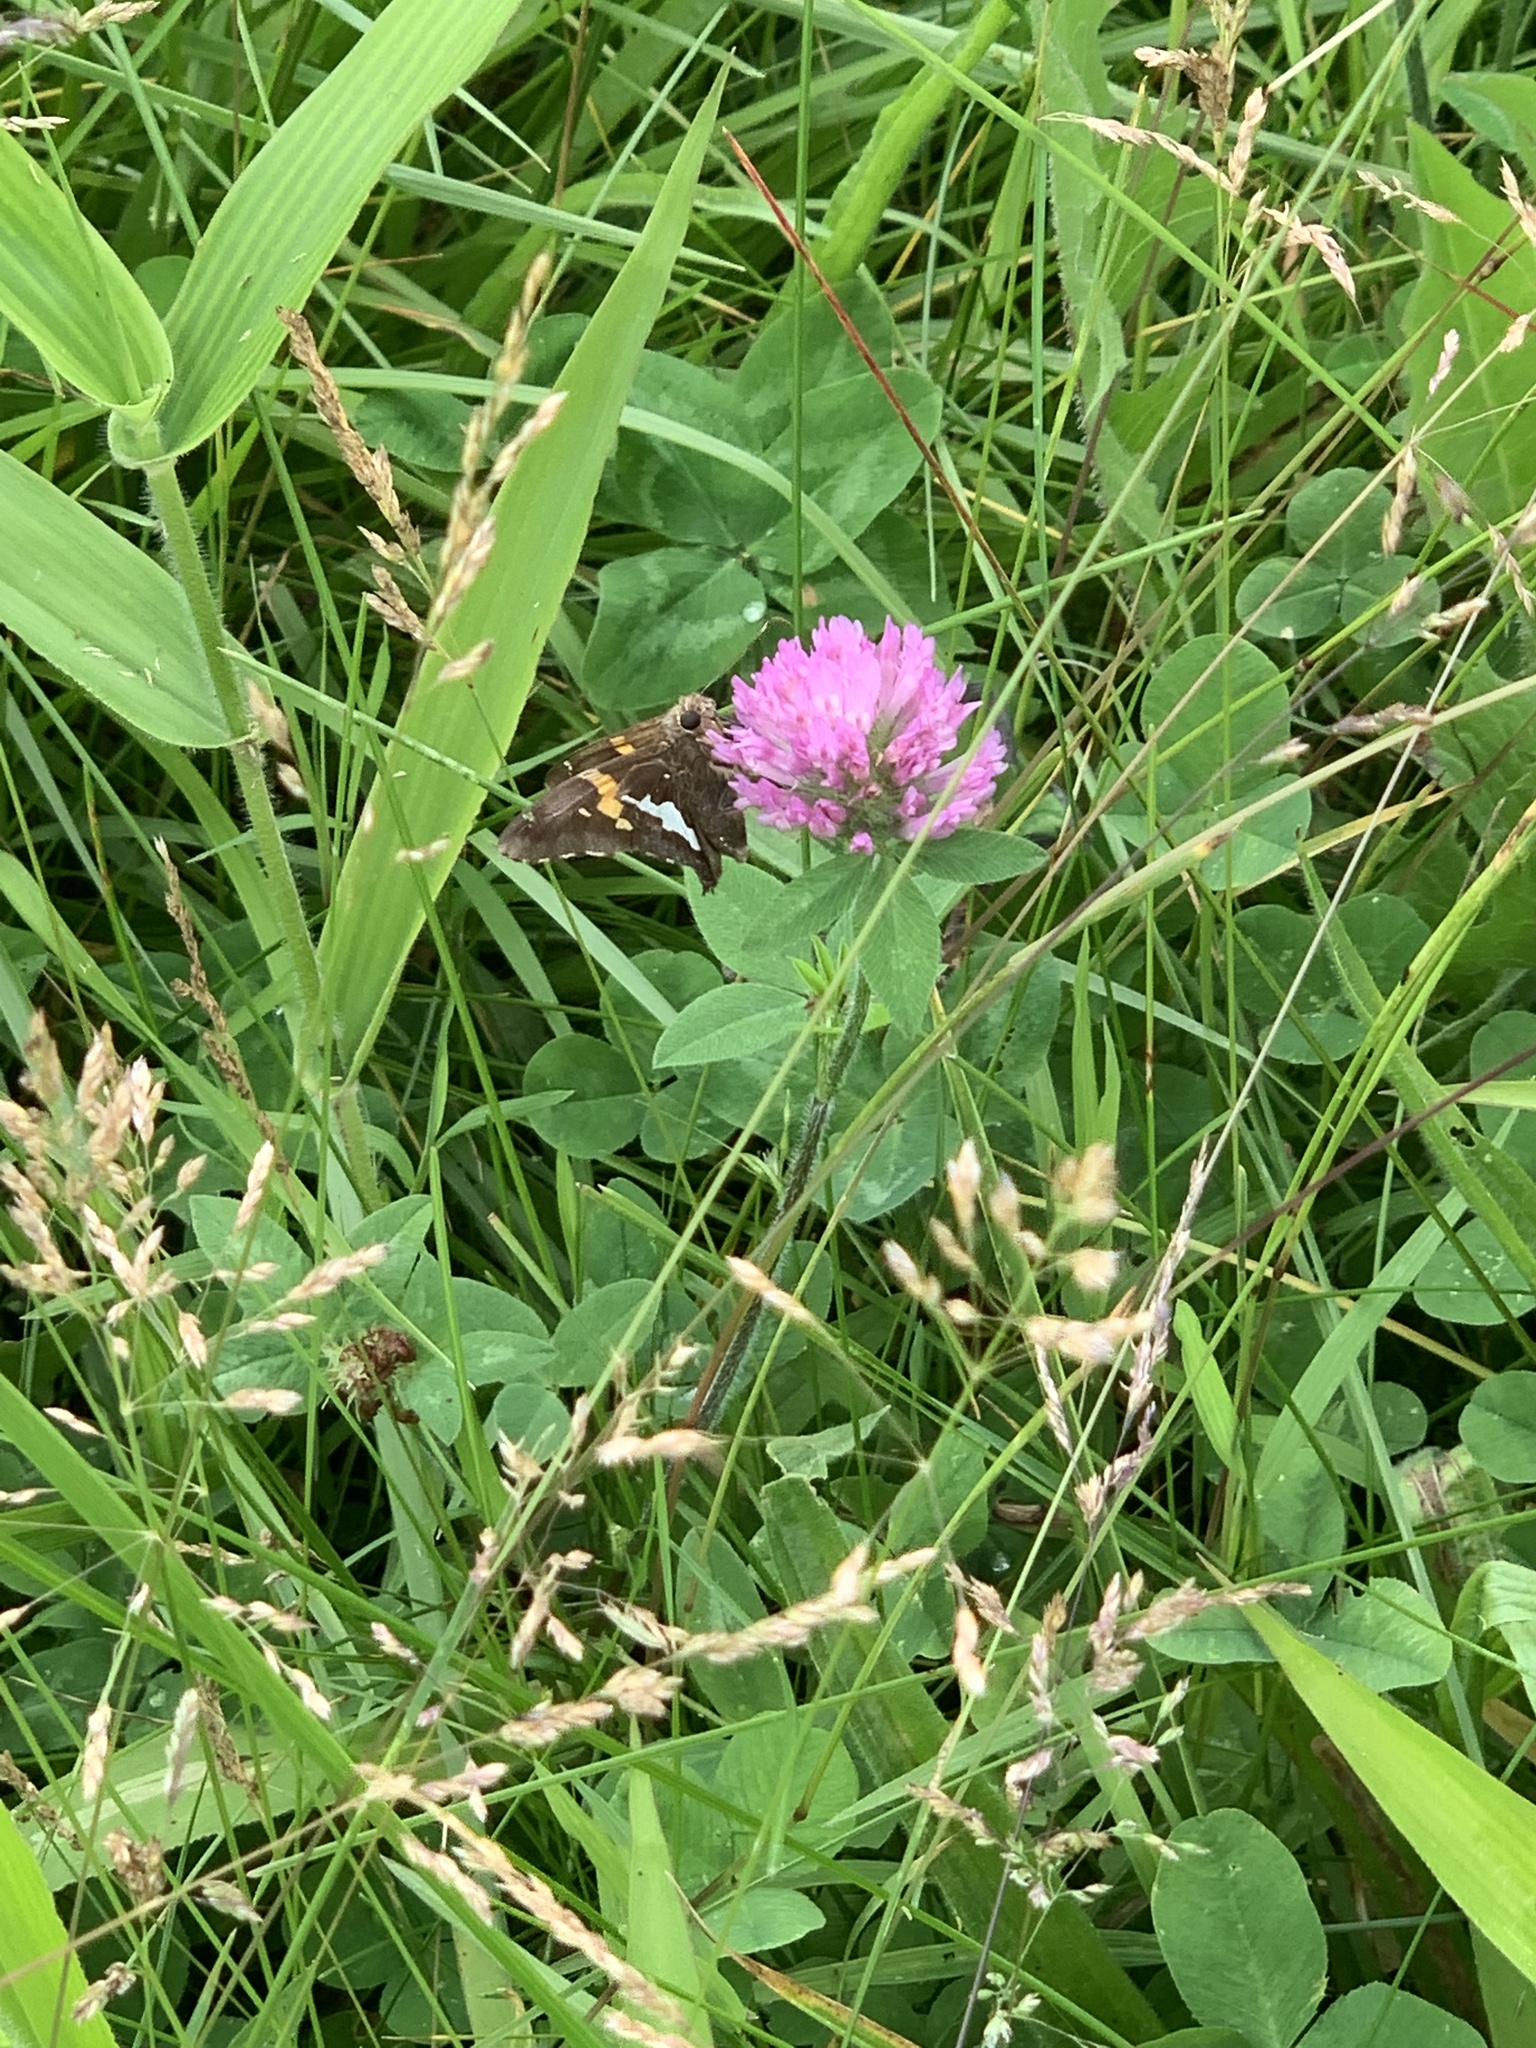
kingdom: Animalia
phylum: Arthropoda
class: Insecta
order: Lepidoptera
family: Hesperiidae
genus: Epargyreus
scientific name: Epargyreus clarus
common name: Silver-spotted skipper
